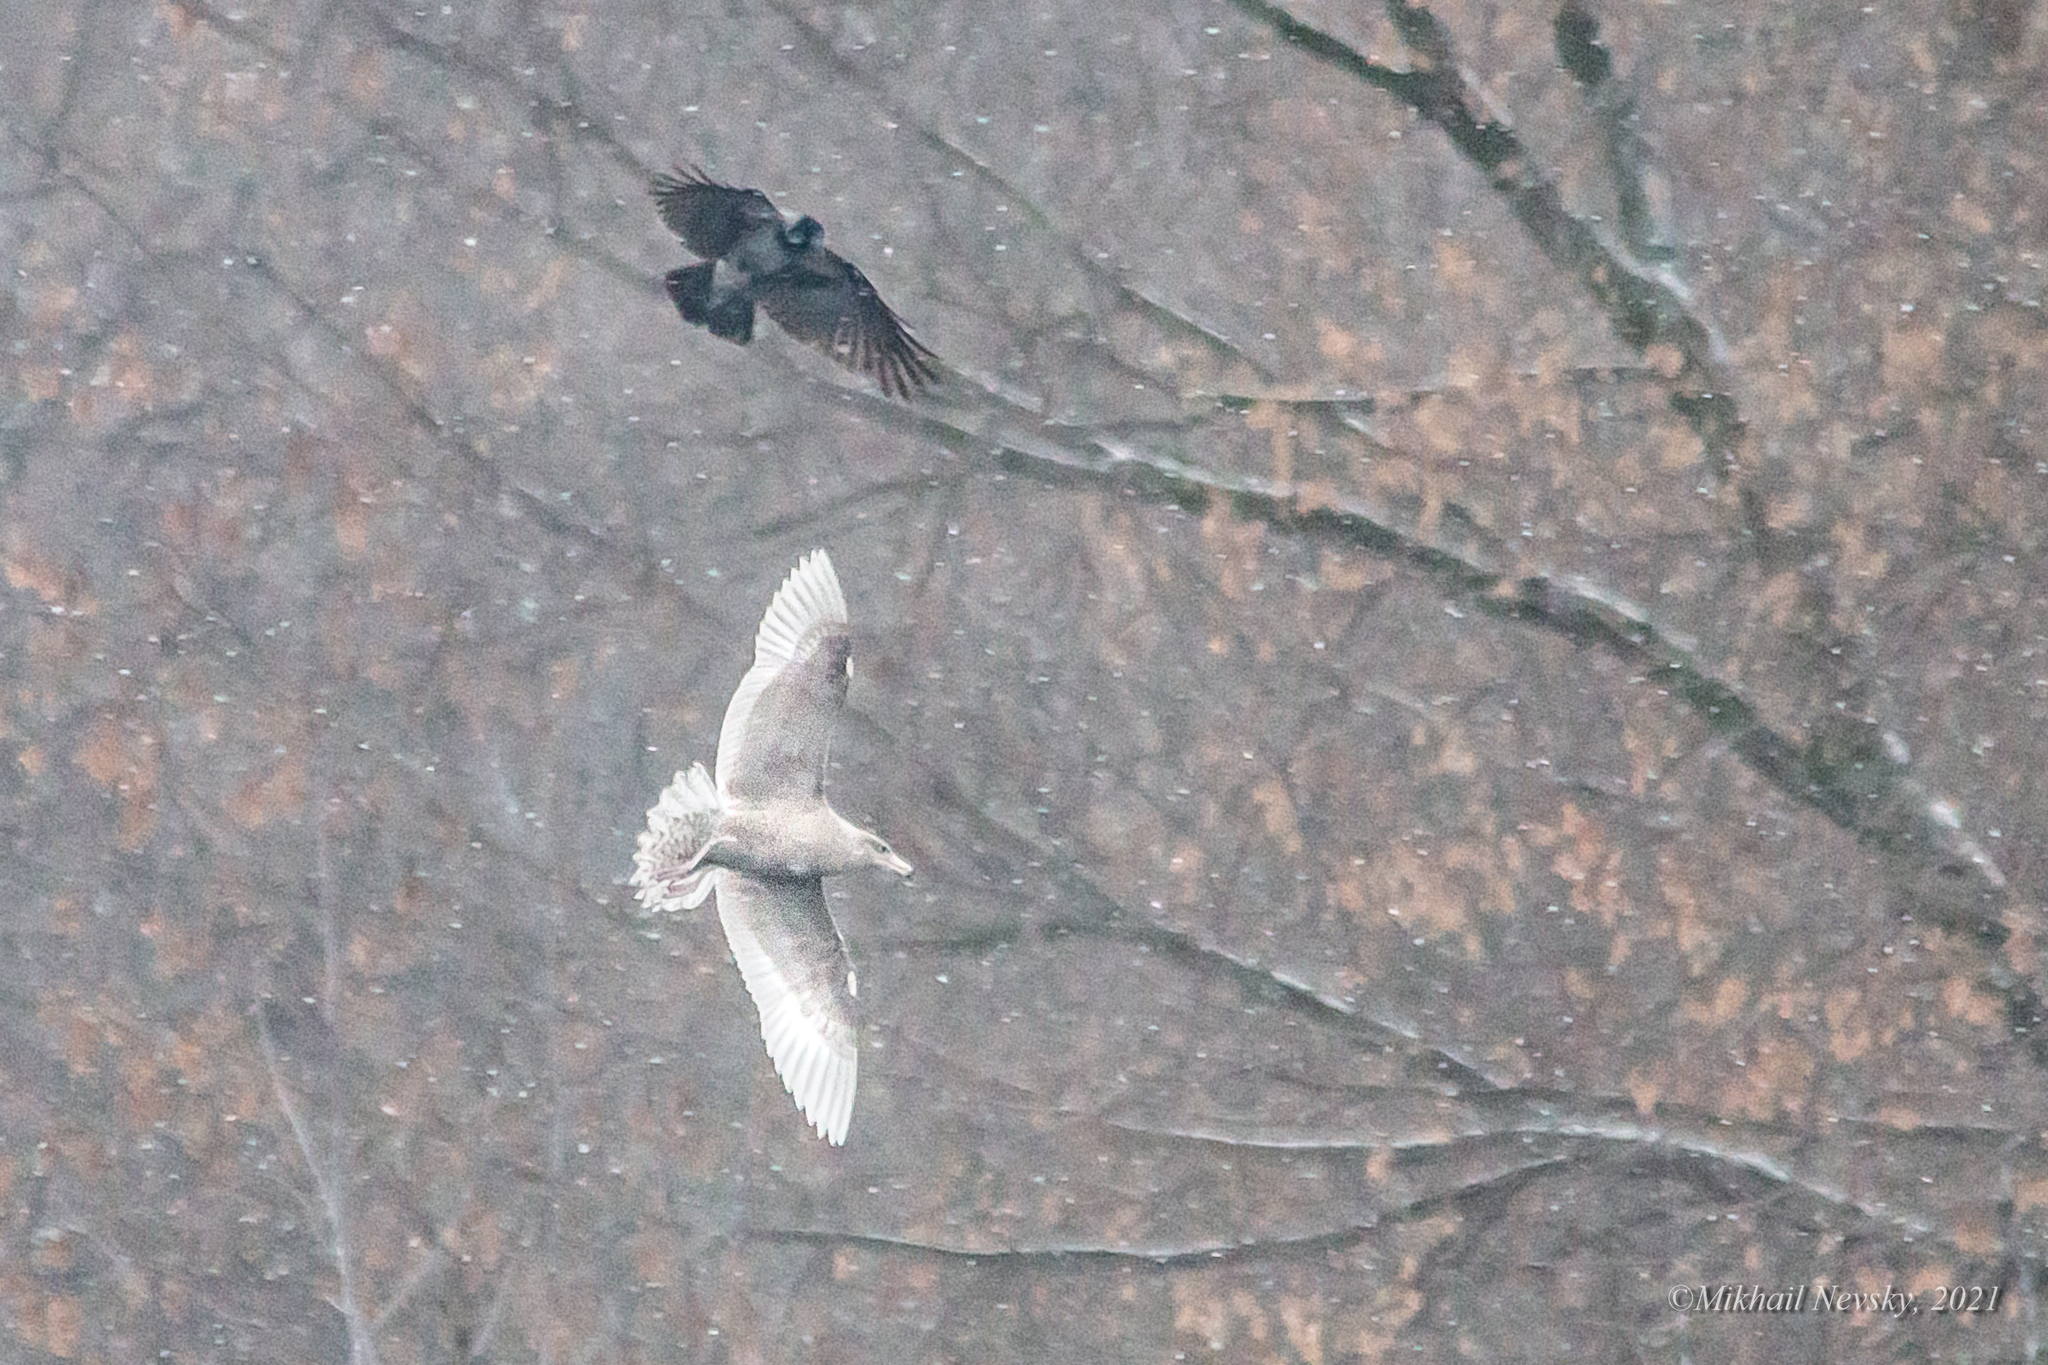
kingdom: Animalia
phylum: Chordata
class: Aves
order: Charadriiformes
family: Laridae
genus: Larus
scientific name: Larus hyperboreus
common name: Glaucous gull
